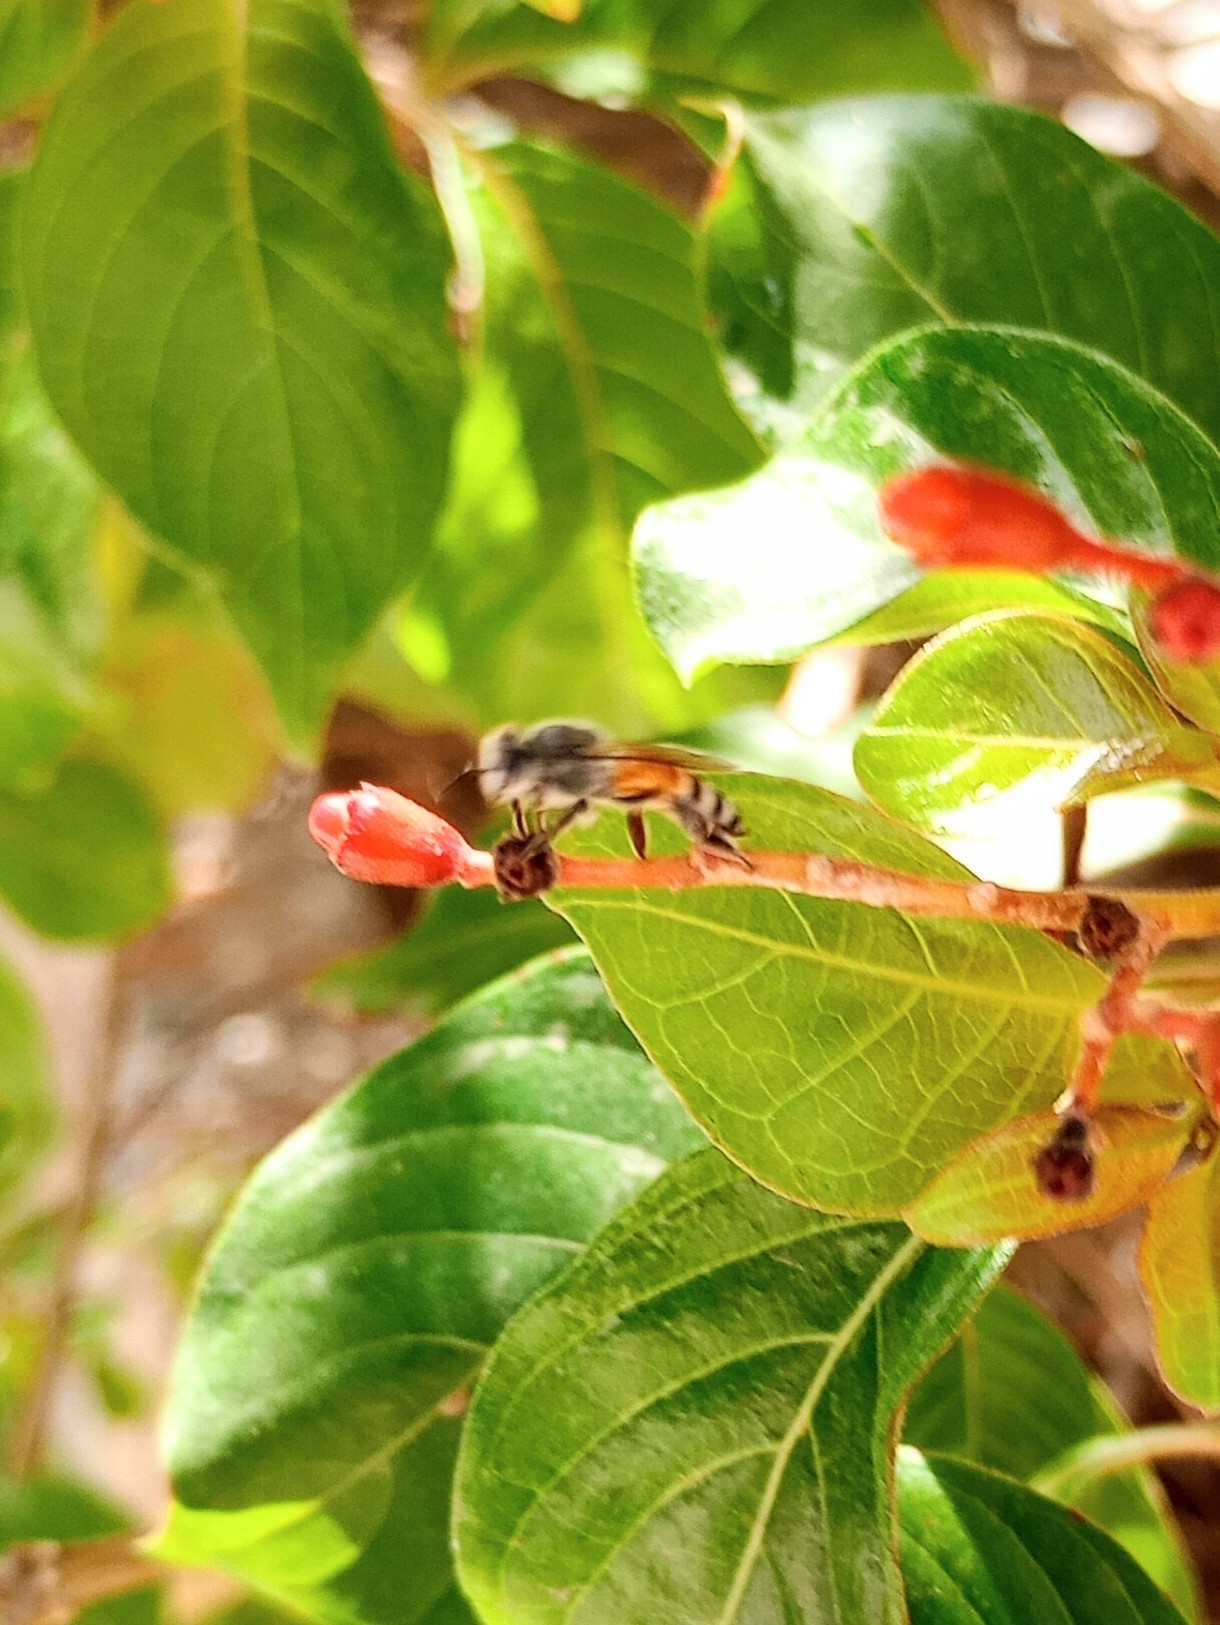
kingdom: Animalia
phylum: Arthropoda
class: Insecta
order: Hymenoptera
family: Apidae
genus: Apis
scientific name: Apis florea
